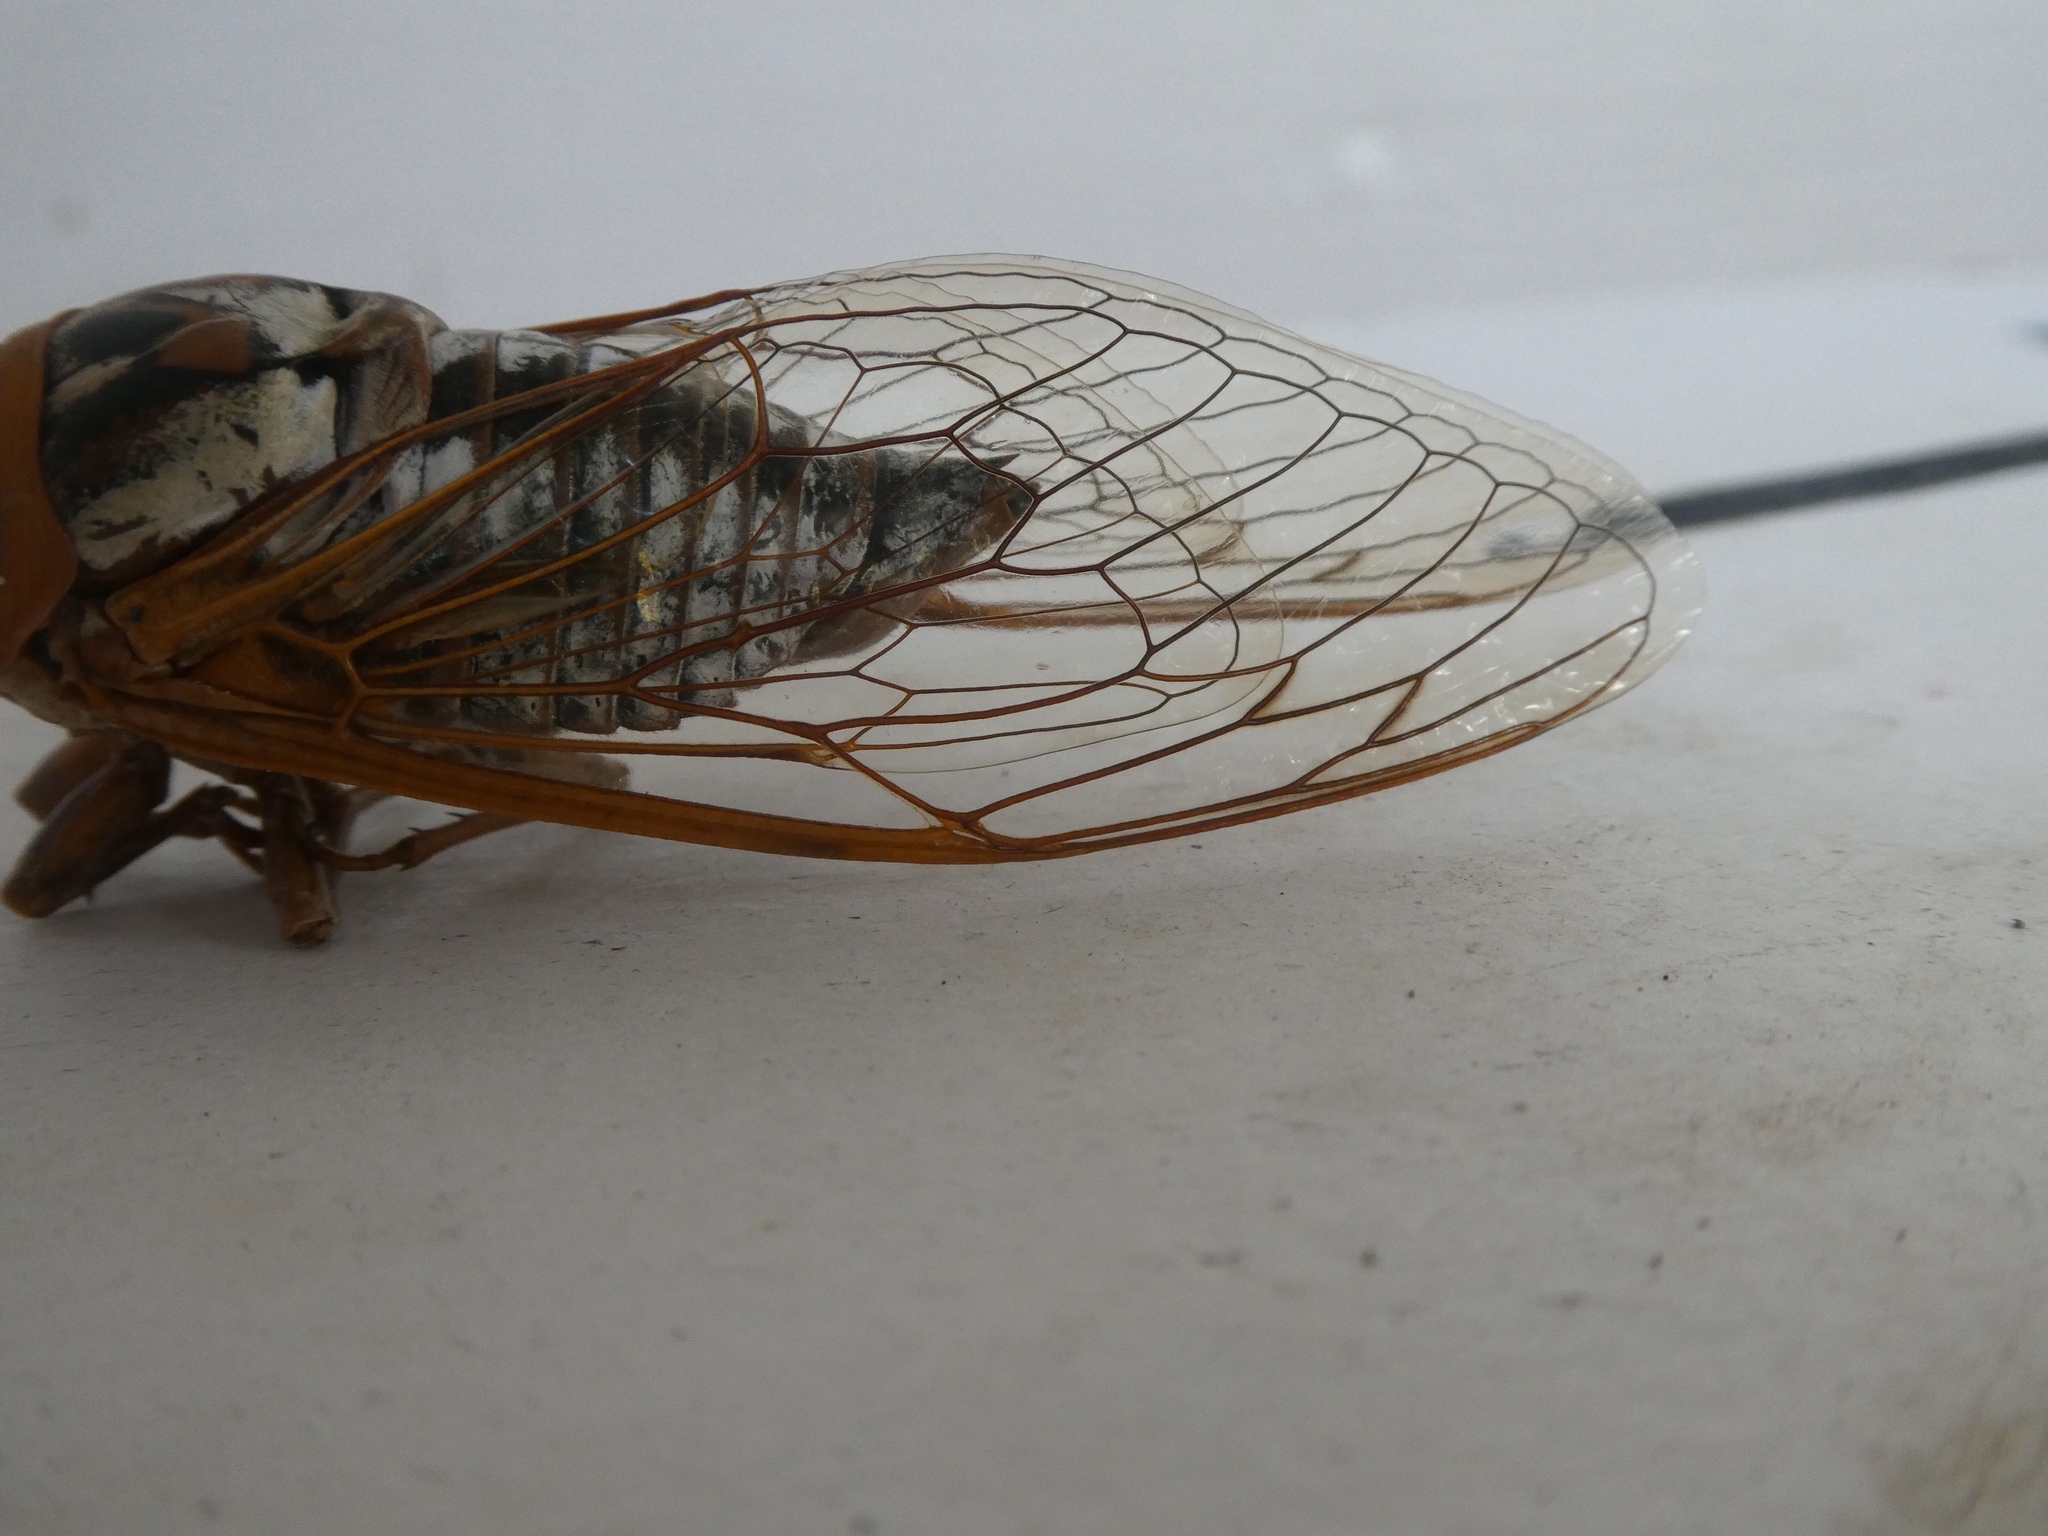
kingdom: Animalia
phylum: Arthropoda
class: Insecta
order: Hemiptera
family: Cicadidae
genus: Megatibicen
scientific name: Megatibicen dealbatus
